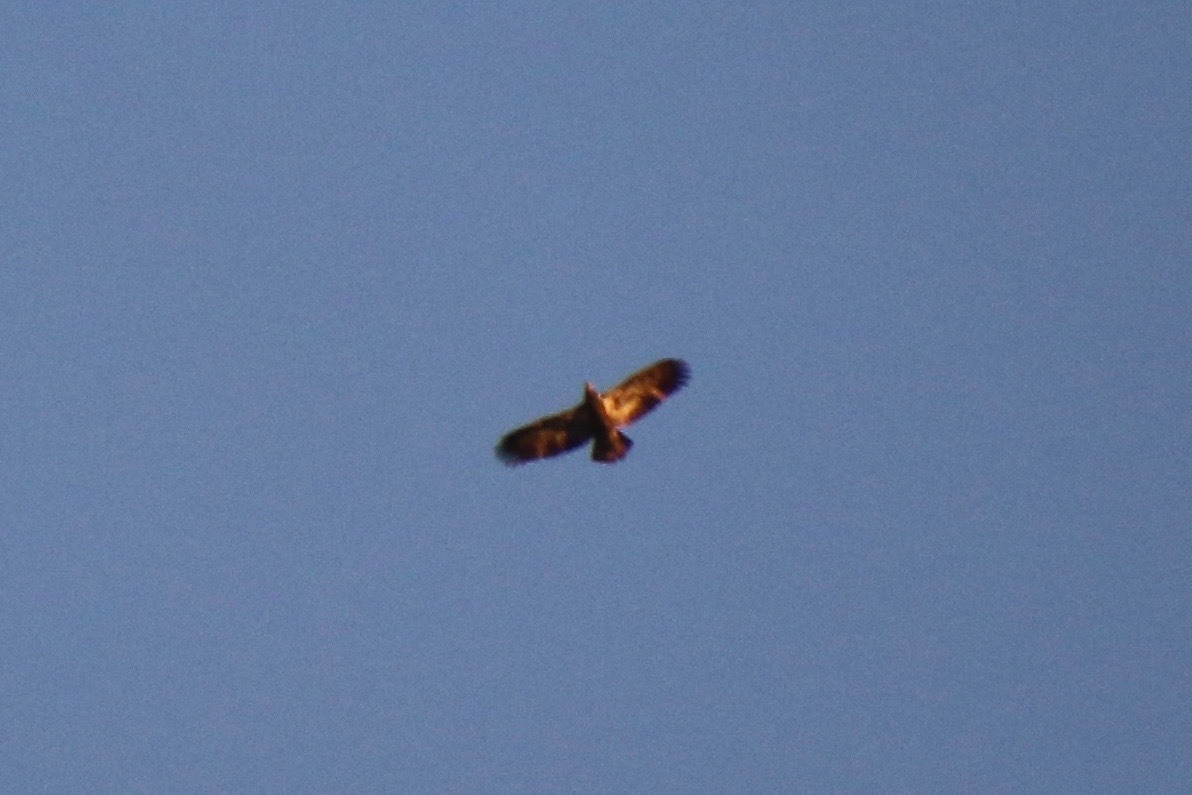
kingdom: Animalia
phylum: Chordata
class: Aves
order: Accipitriformes
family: Accipitridae
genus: Haliaeetus
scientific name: Haliaeetus leucocephalus
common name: Bald eagle
